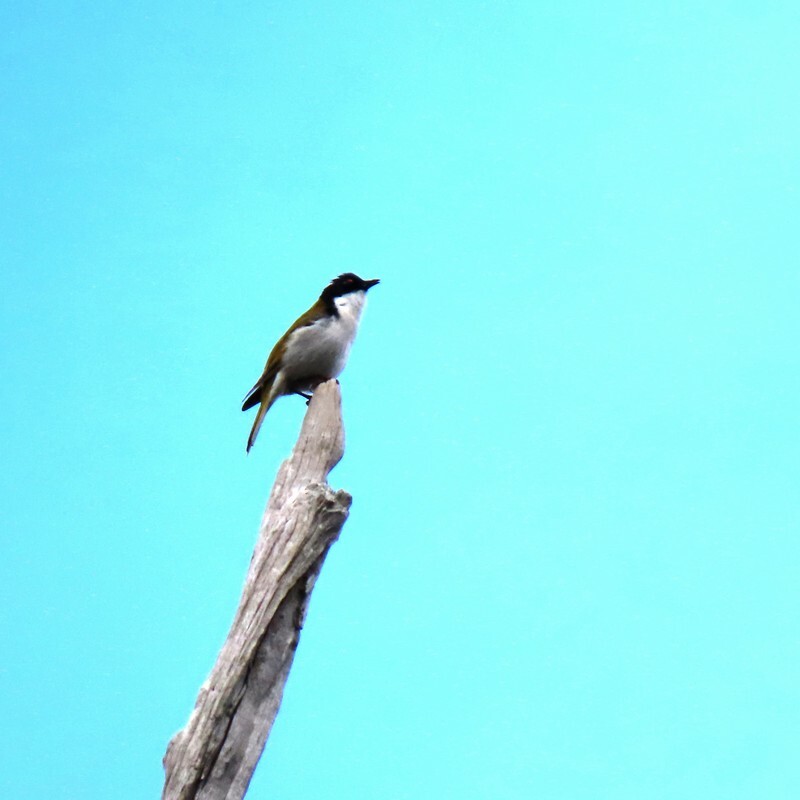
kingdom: Animalia
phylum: Chordata
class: Aves
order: Passeriformes
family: Meliphagidae
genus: Melithreptus
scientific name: Melithreptus lunatus
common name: White-naped honeyeater
